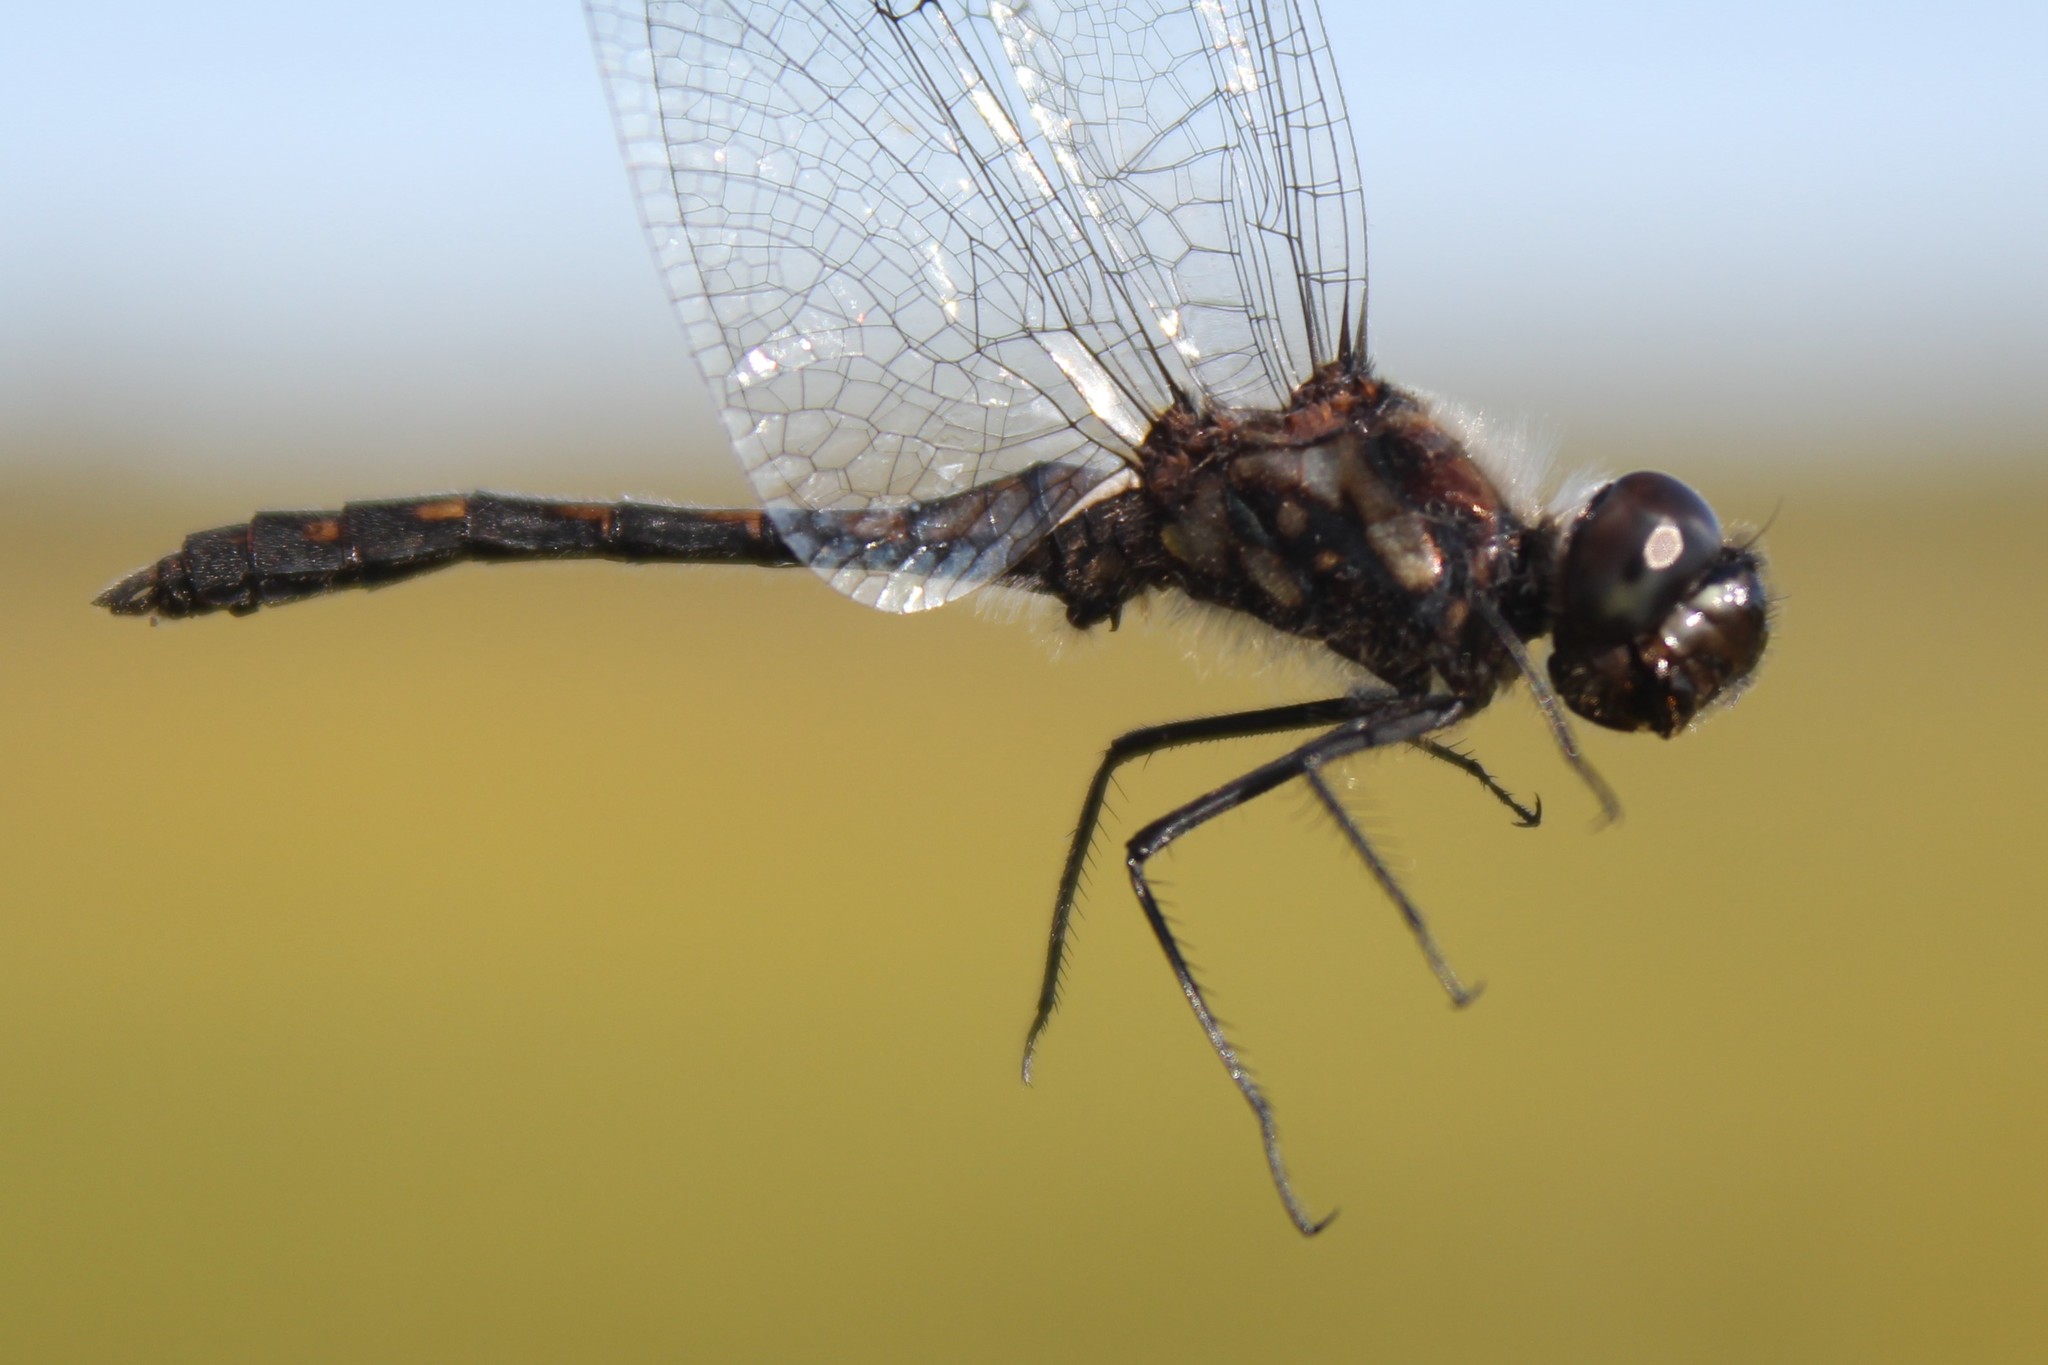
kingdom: Animalia
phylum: Arthropoda
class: Insecta
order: Odonata
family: Libellulidae
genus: Sympetrum
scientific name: Sympetrum danae
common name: Black darter
